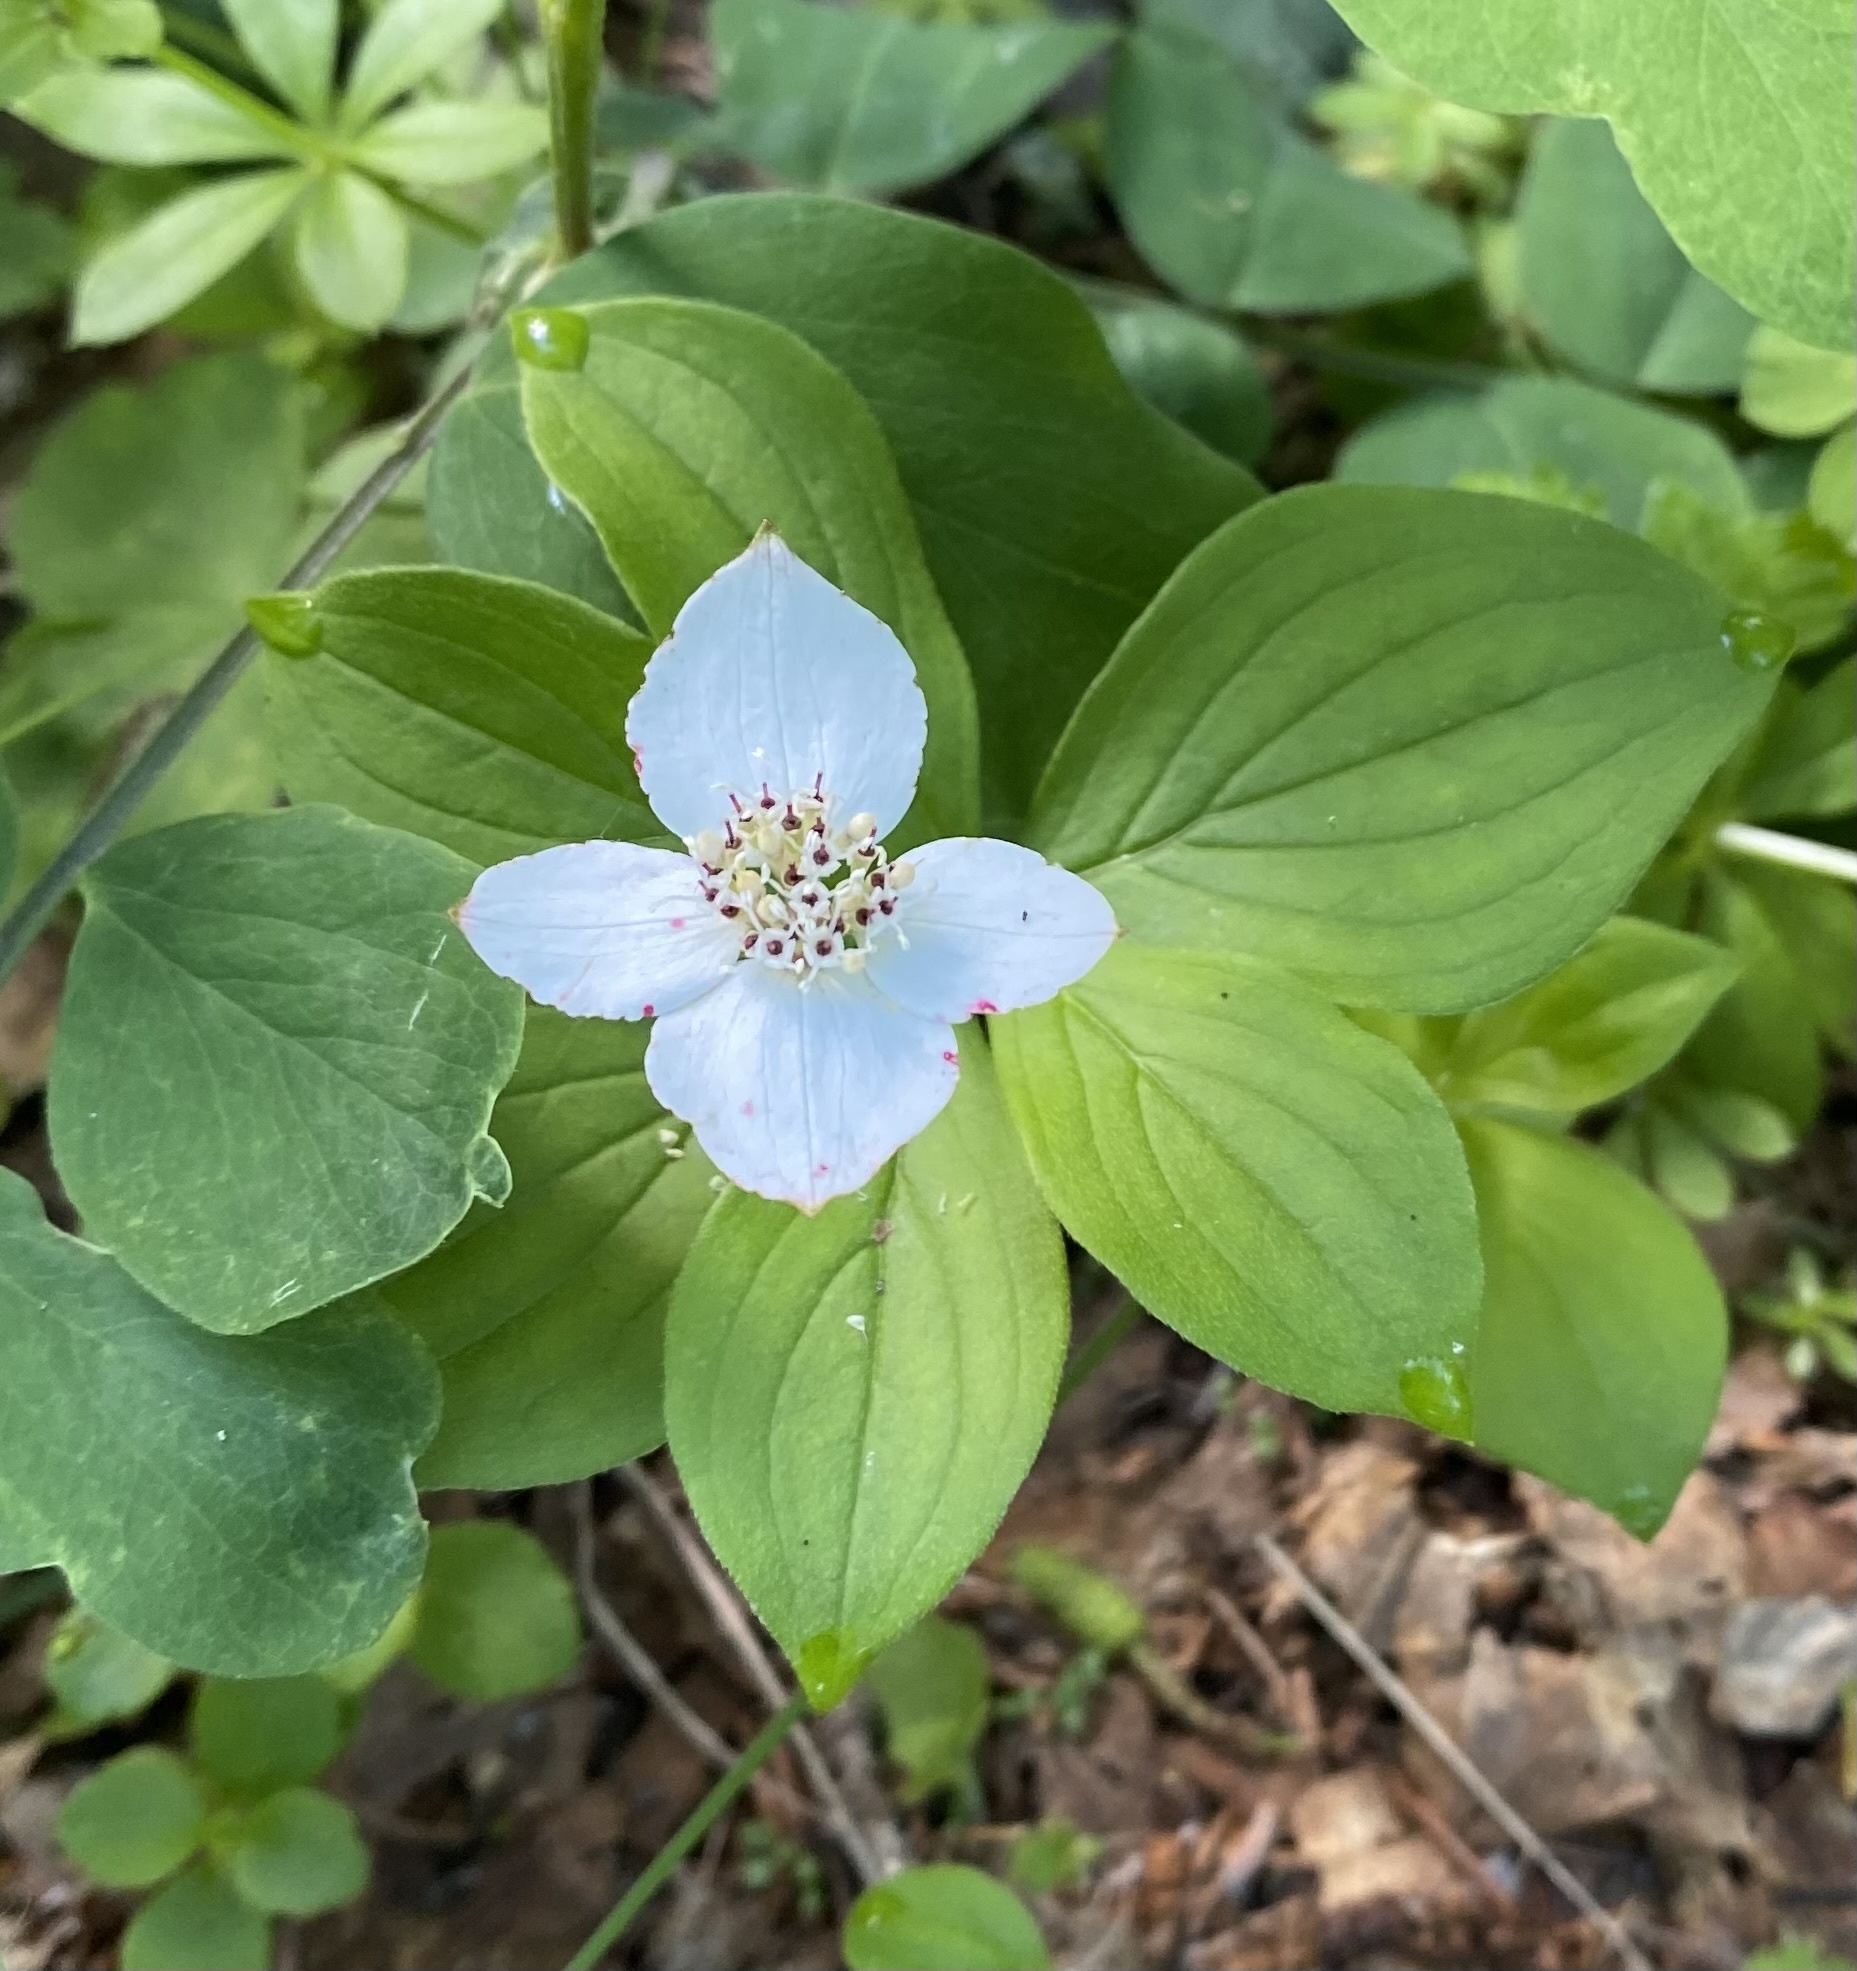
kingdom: Plantae
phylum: Tracheophyta
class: Magnoliopsida
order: Cornales
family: Cornaceae
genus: Cornus
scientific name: Cornus canadensis
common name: Creeping dogwood
